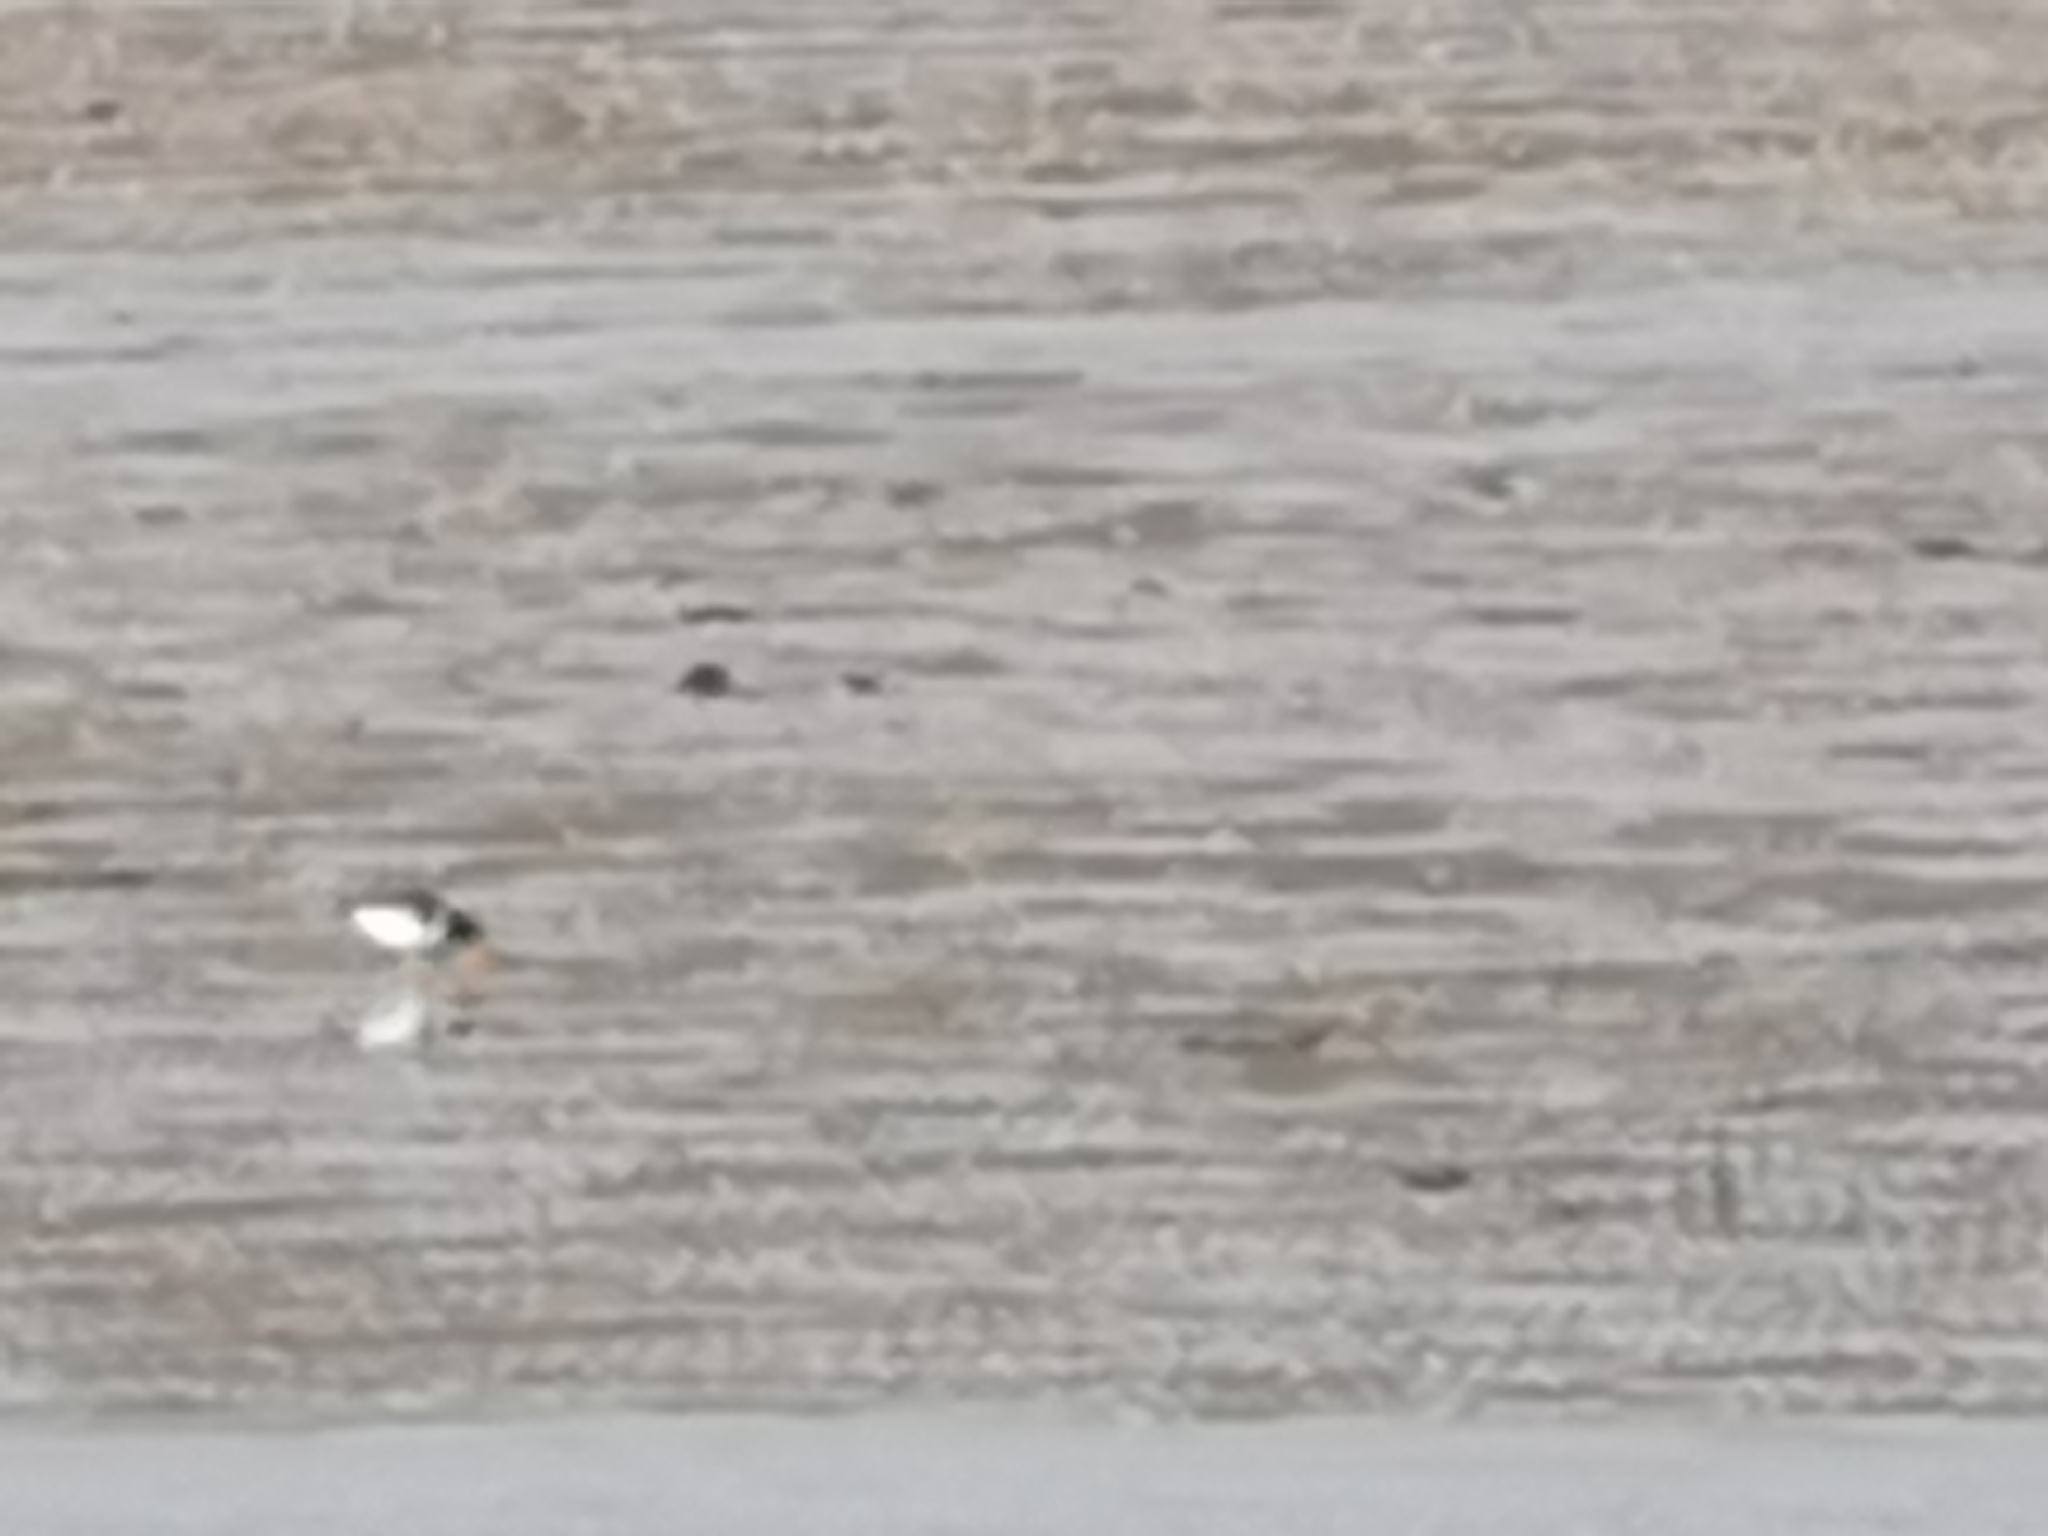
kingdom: Animalia
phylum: Chordata
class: Aves
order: Charadriiformes
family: Haematopodidae
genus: Haematopus
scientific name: Haematopus ostralegus
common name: Eurasian oystercatcher
